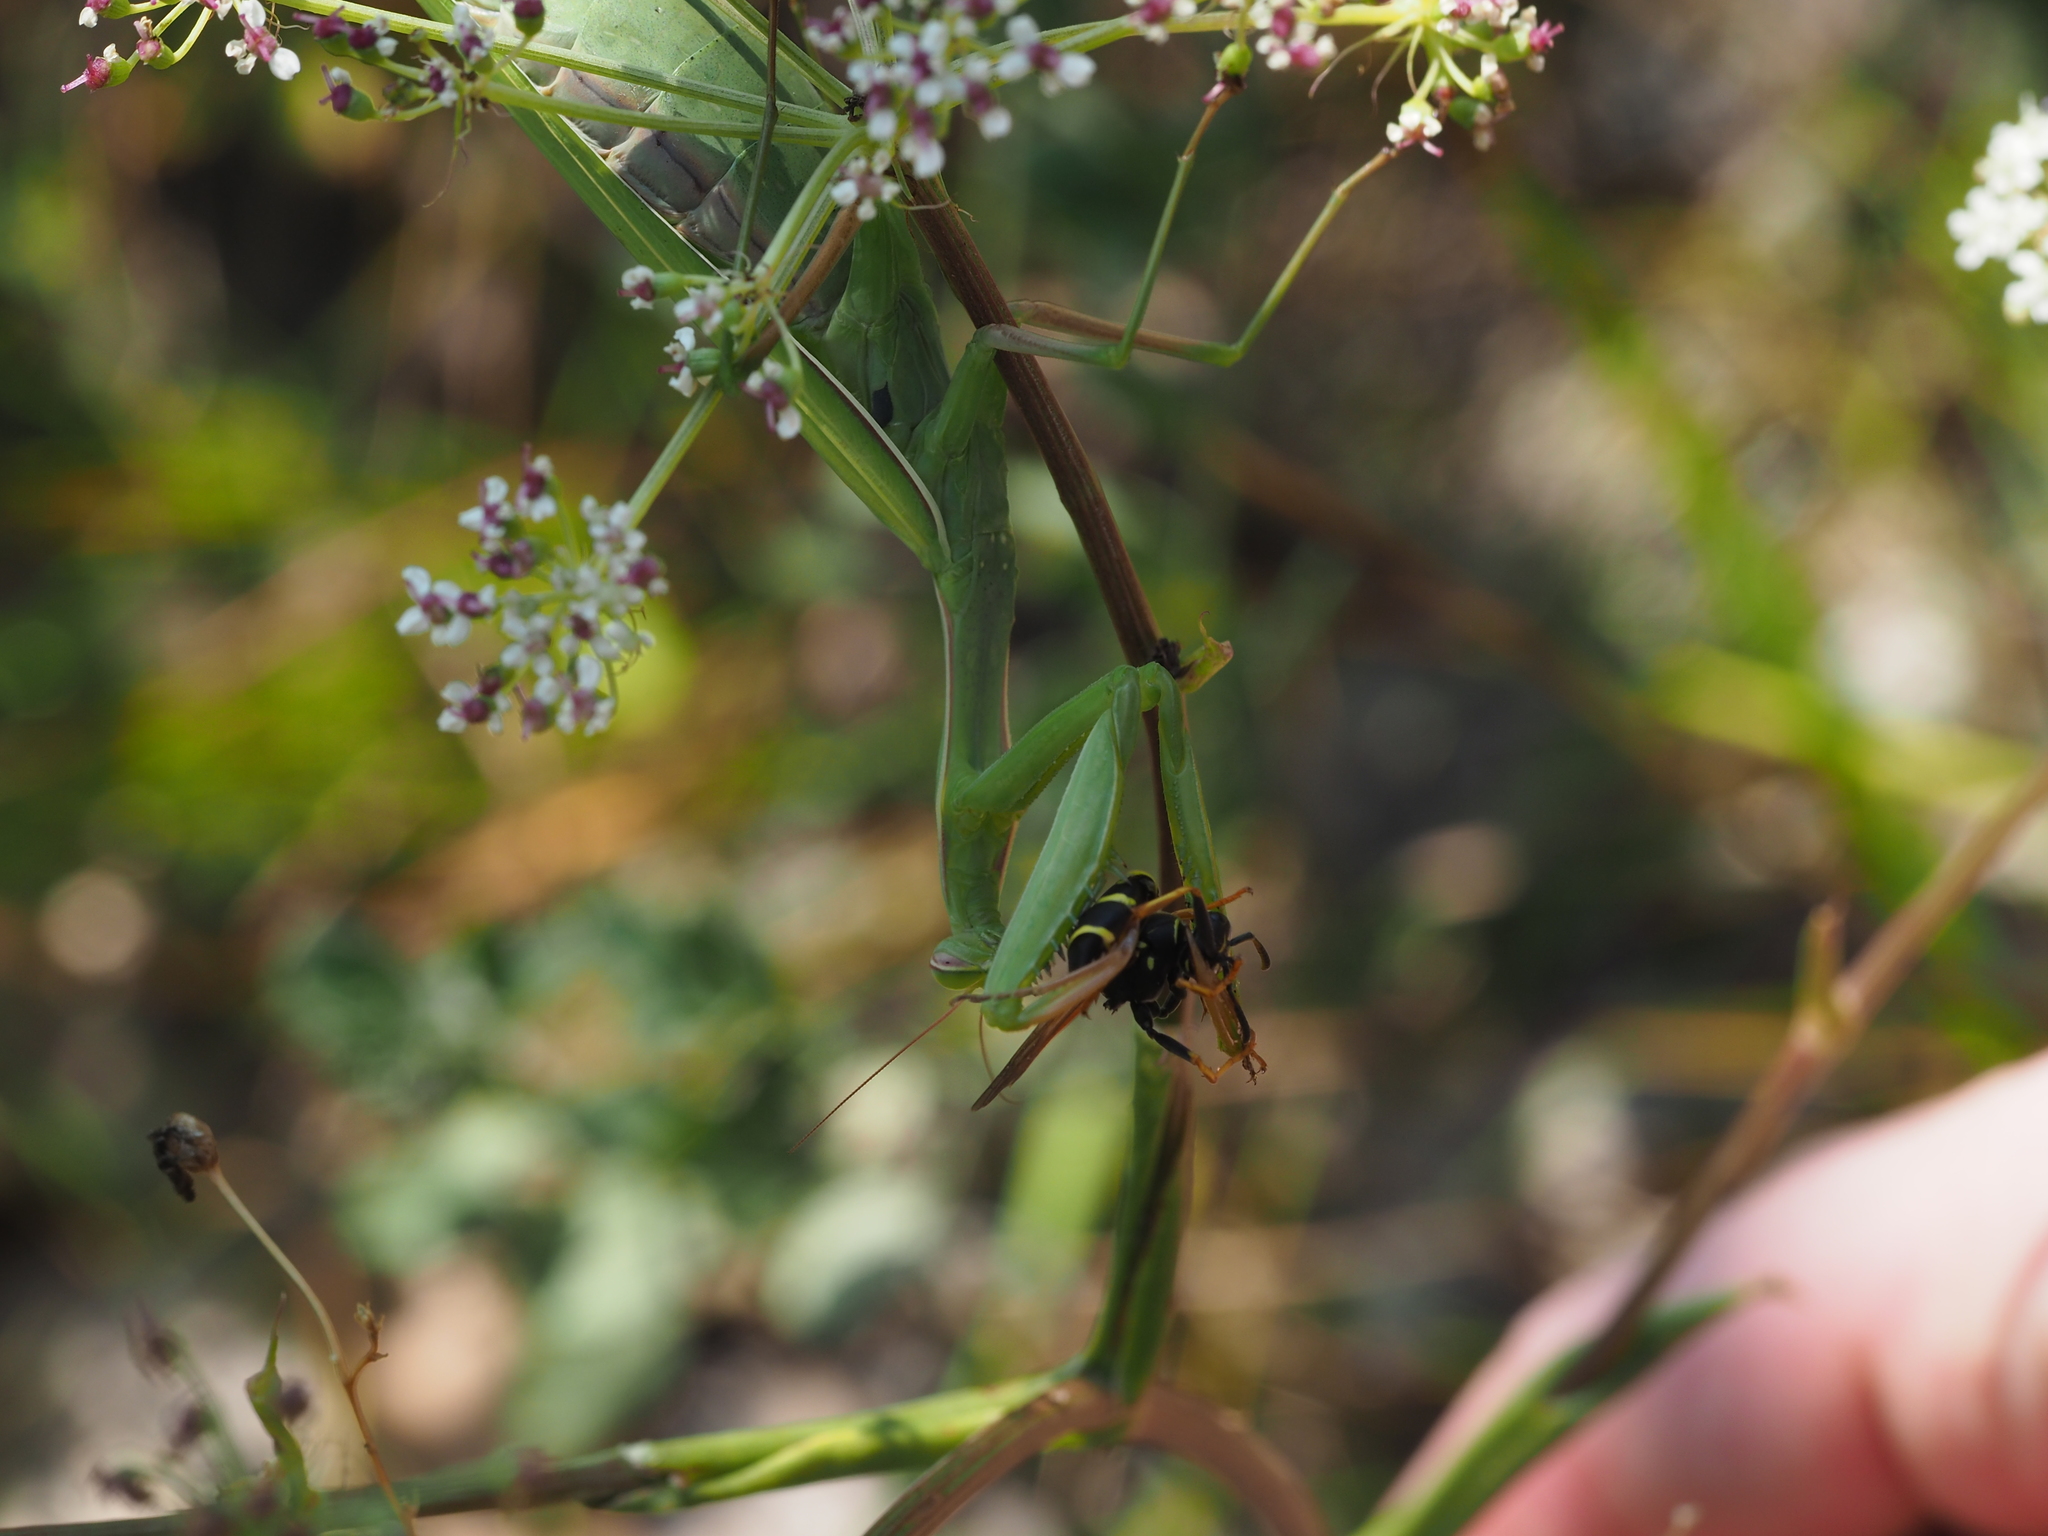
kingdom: Animalia
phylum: Arthropoda
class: Insecta
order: Mantodea
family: Mantidae
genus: Mantis
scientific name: Mantis religiosa
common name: Praying mantis
